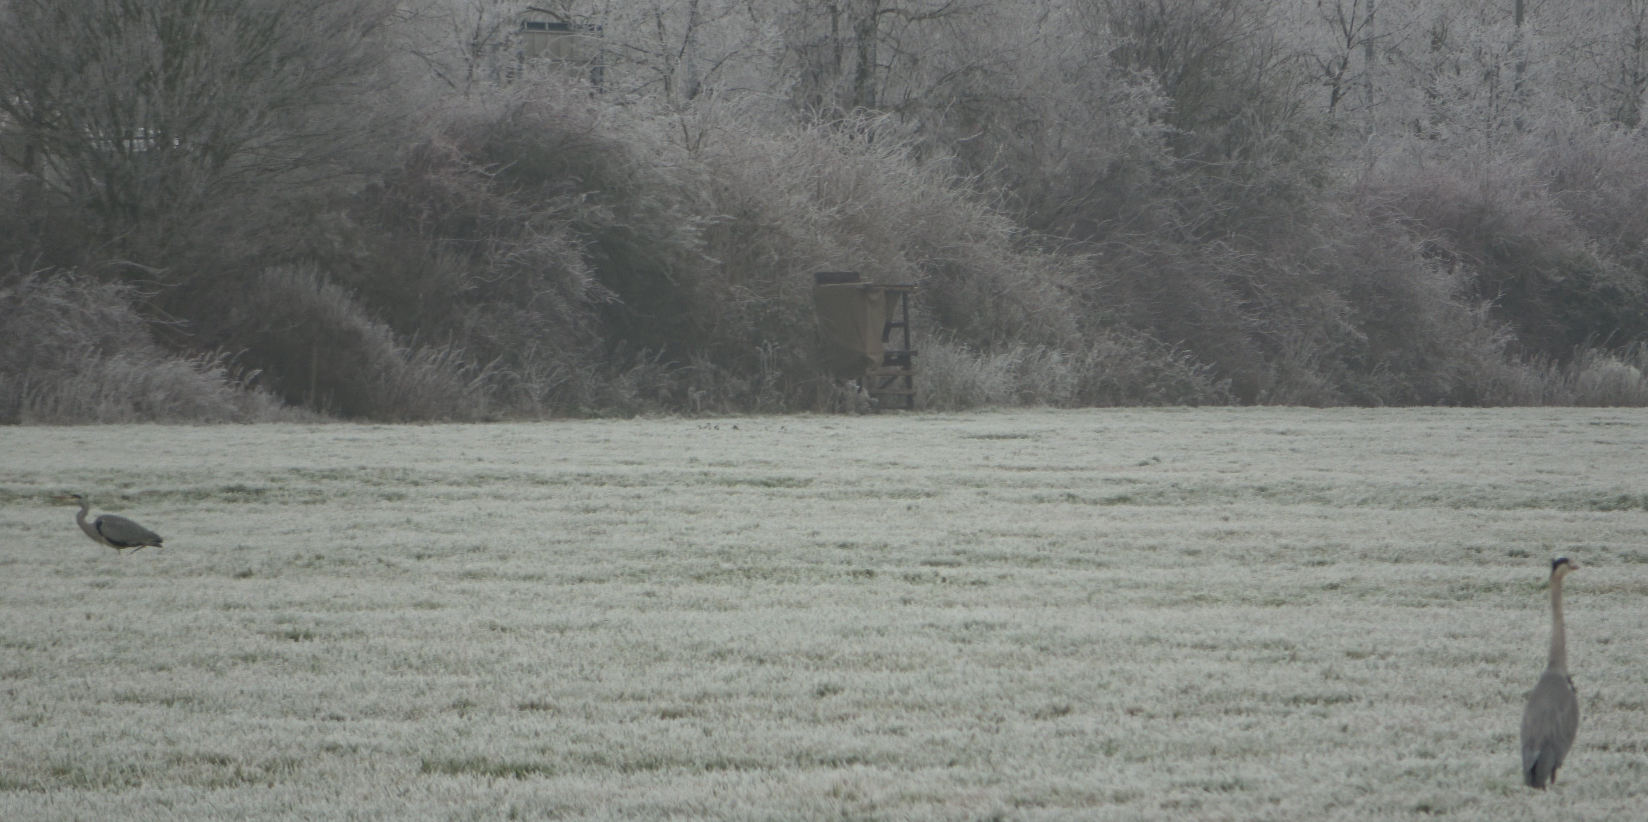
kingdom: Animalia
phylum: Chordata
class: Aves
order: Pelecaniformes
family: Ardeidae
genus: Ardea
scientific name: Ardea cinerea
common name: Grey heron
